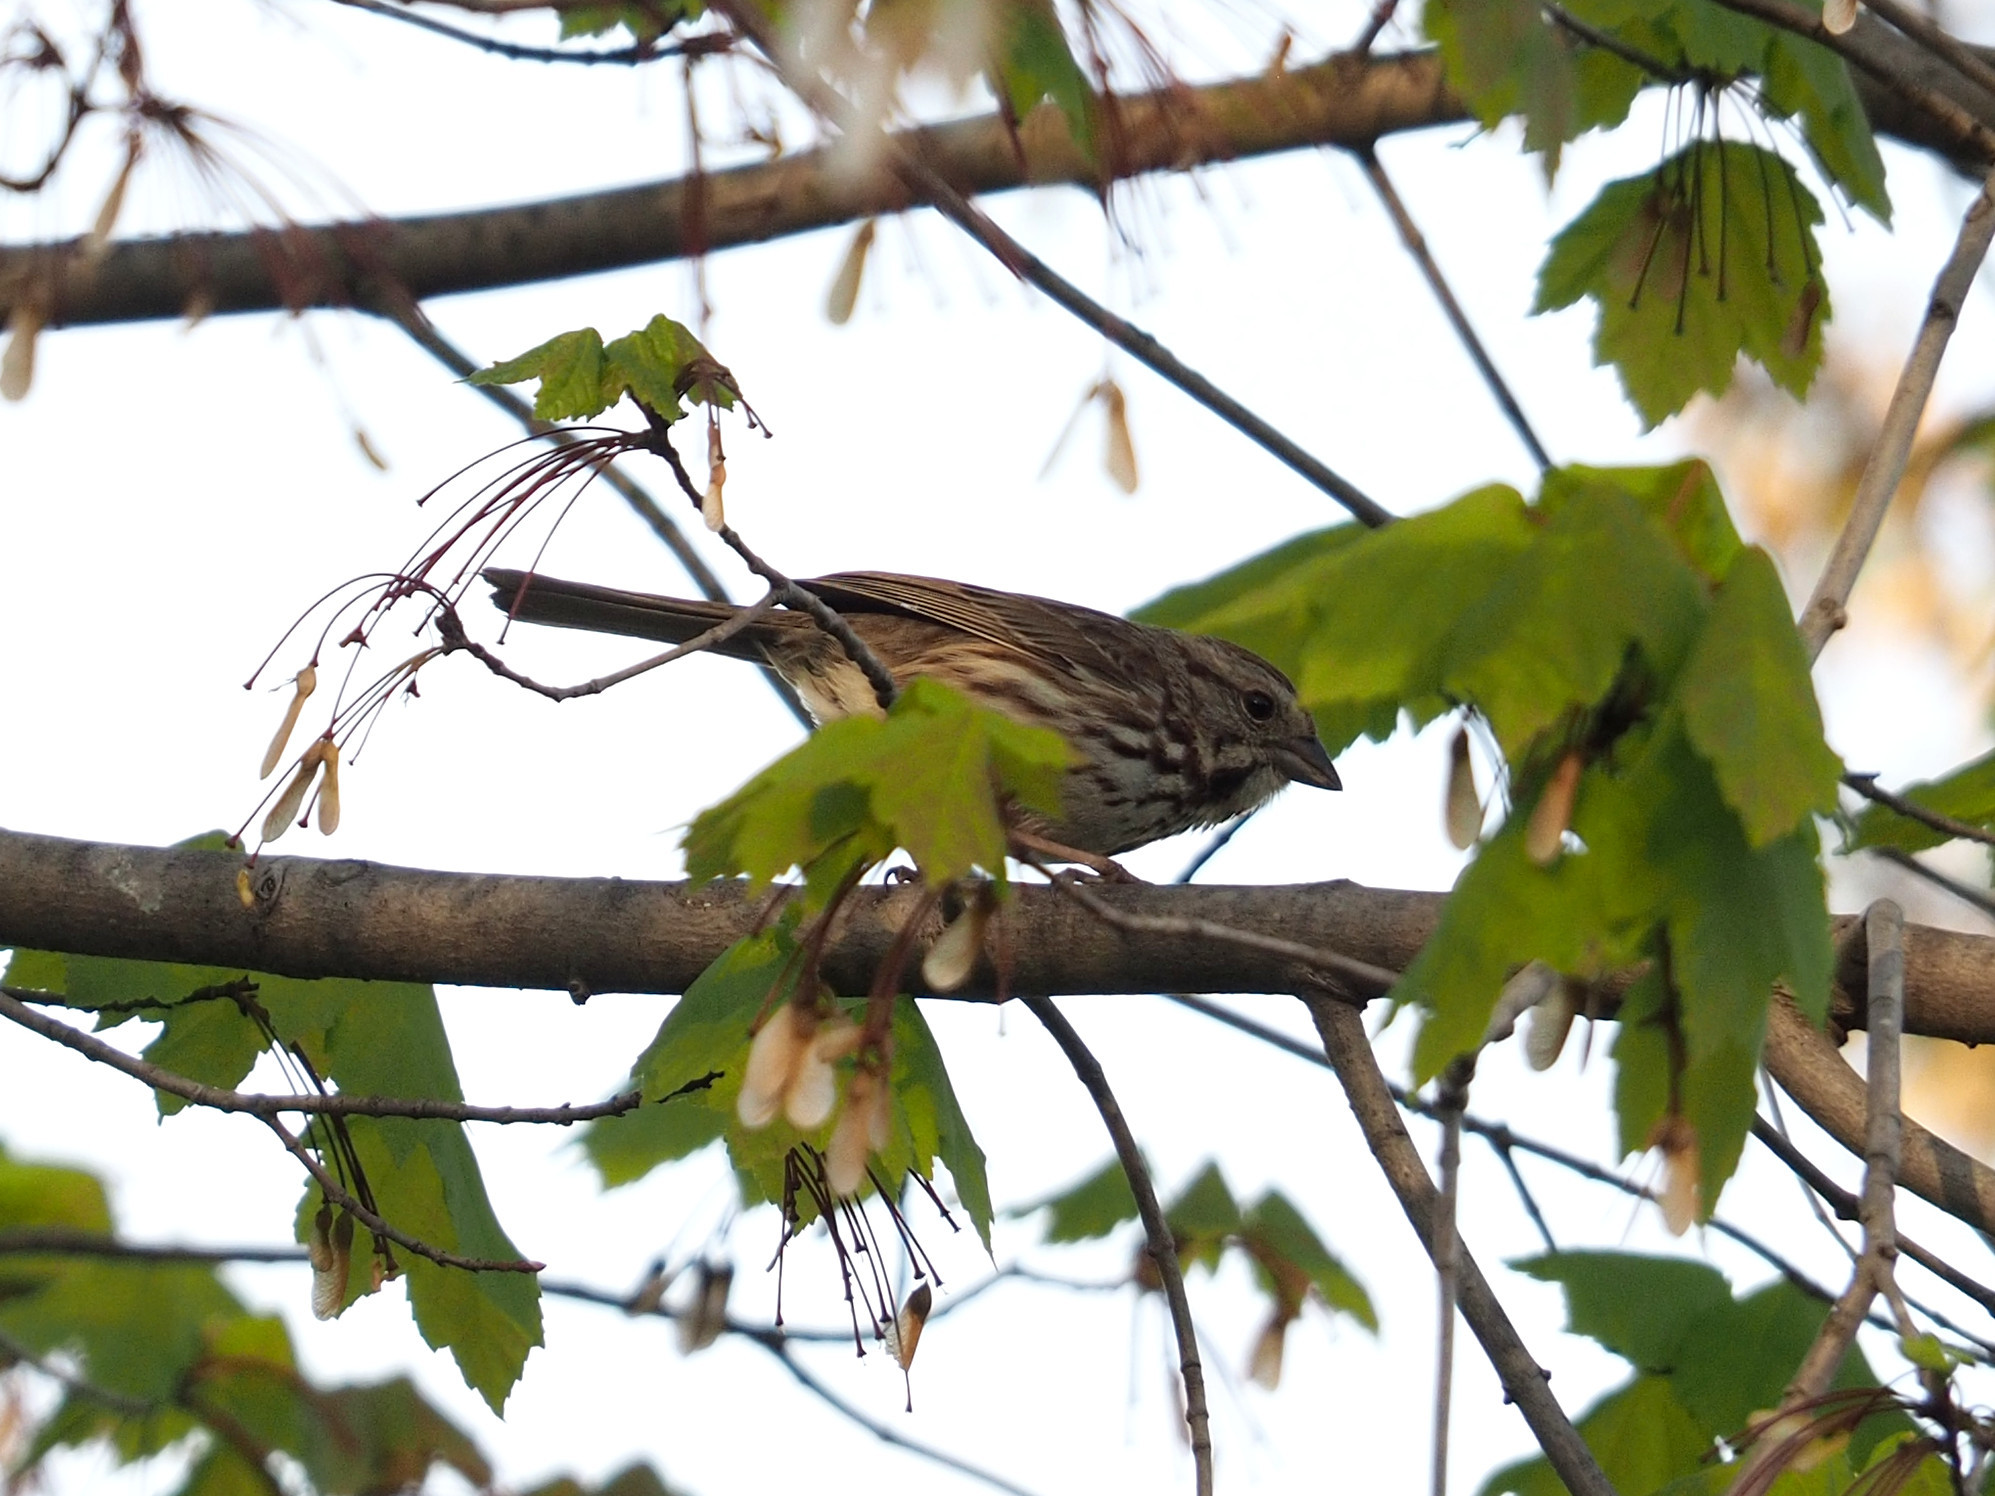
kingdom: Animalia
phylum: Chordata
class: Aves
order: Passeriformes
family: Passerellidae
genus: Melospiza
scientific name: Melospiza melodia
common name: Song sparrow
